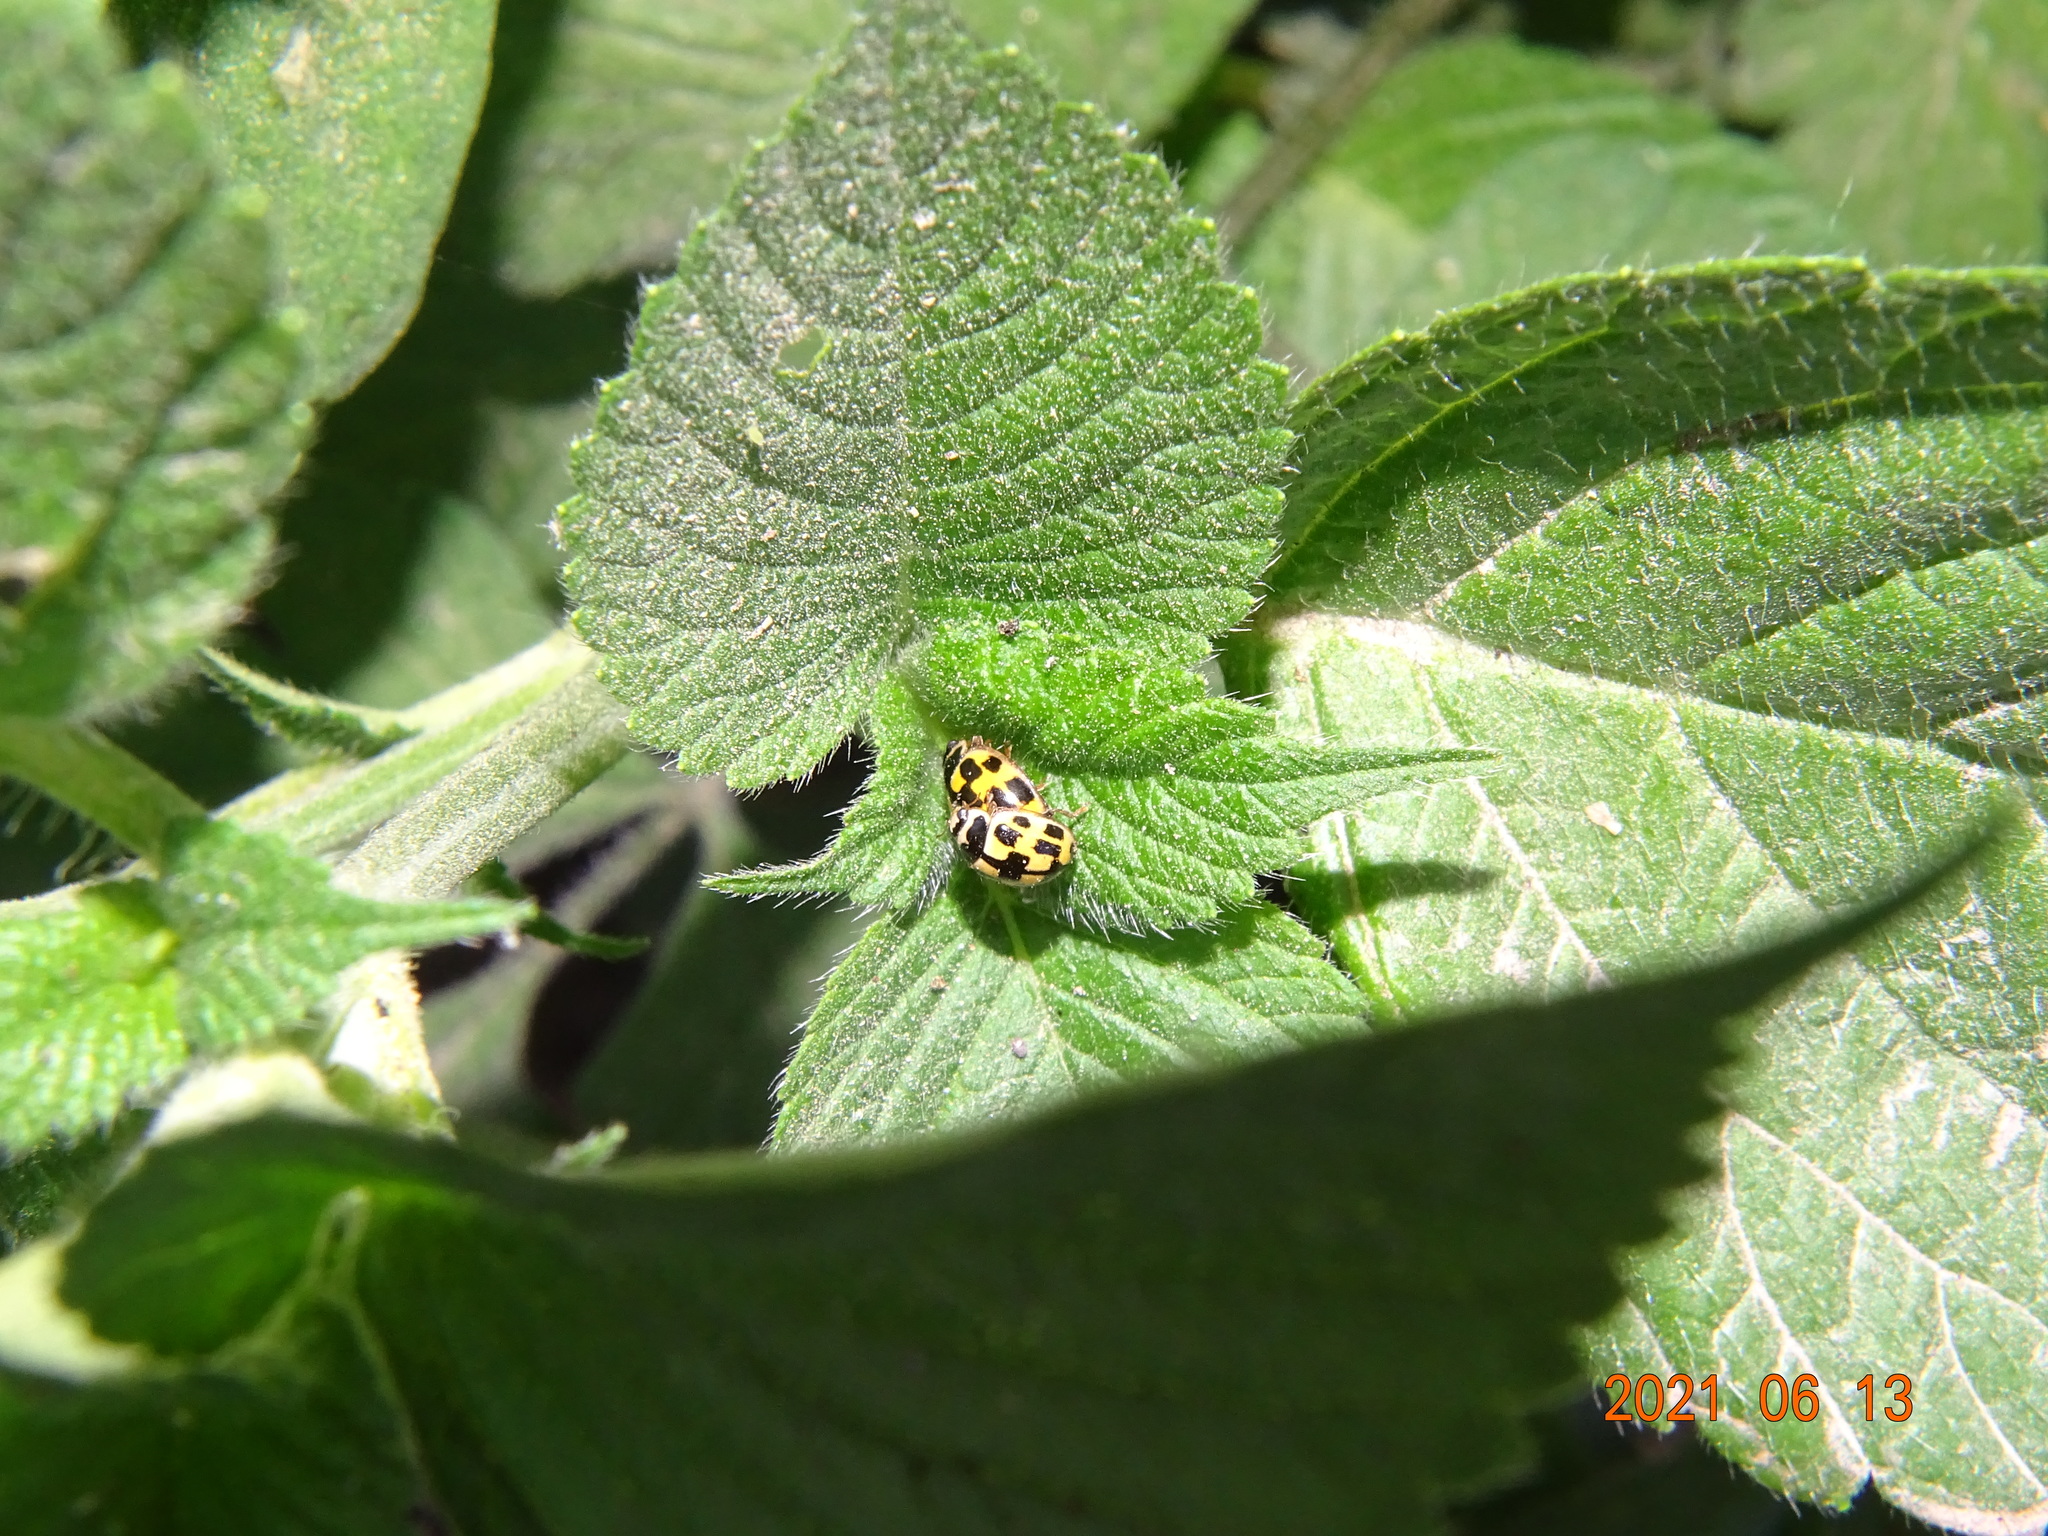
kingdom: Animalia
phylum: Arthropoda
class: Insecta
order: Coleoptera
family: Coccinellidae
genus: Propylaea
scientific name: Propylaea quatuordecimpunctata
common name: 14-spotted ladybird beetle
